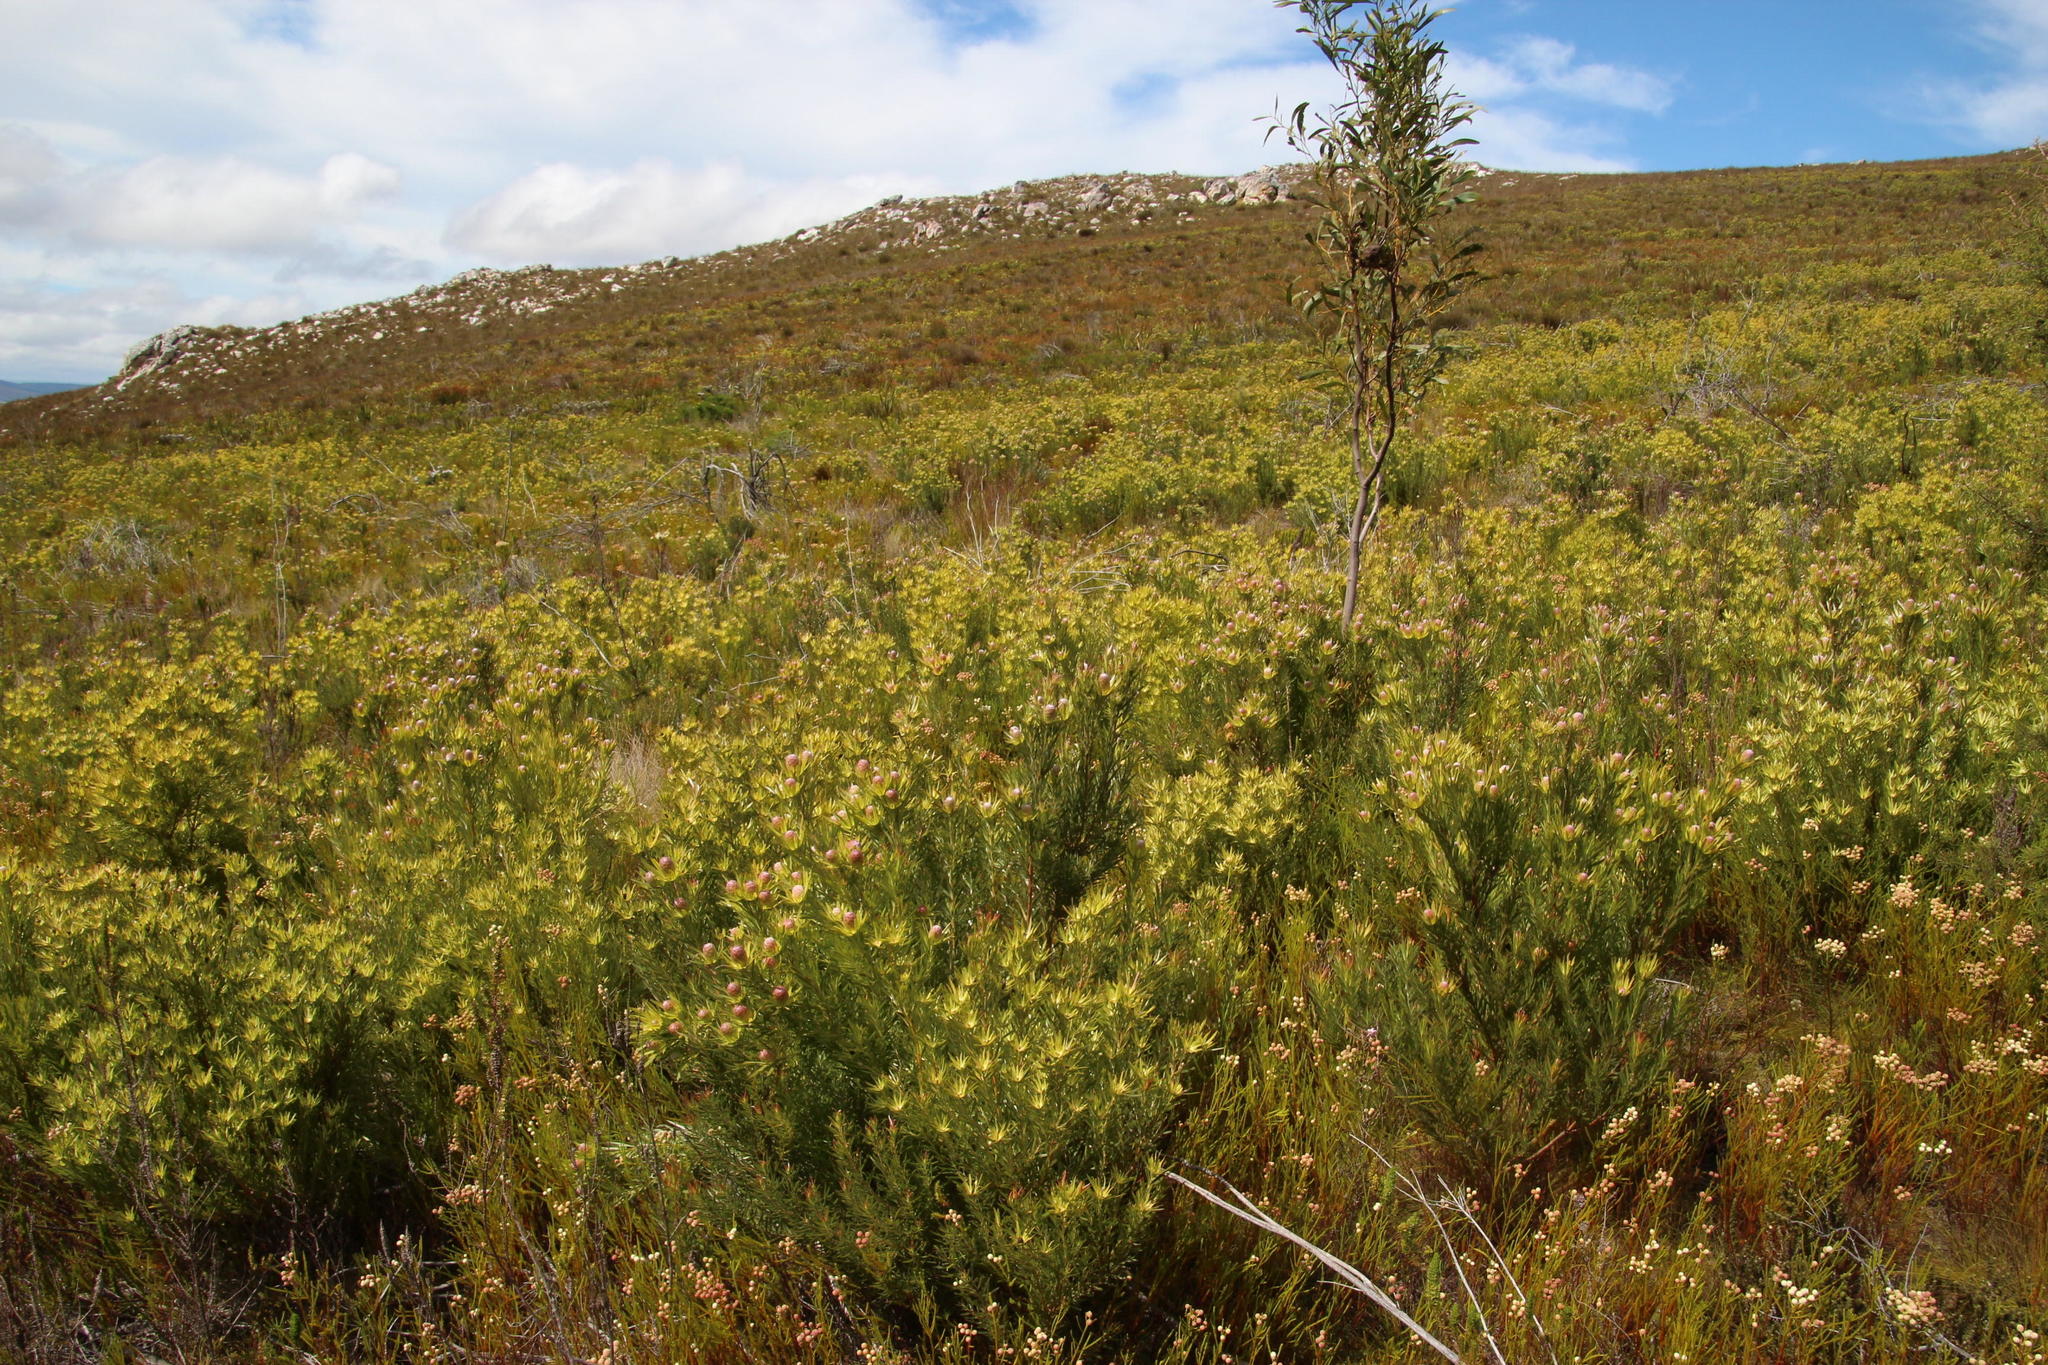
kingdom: Plantae
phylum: Tracheophyta
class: Magnoliopsida
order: Proteales
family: Proteaceae
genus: Leucadendron
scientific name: Leucadendron xanthoconus
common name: Sickle-leaf conebush
